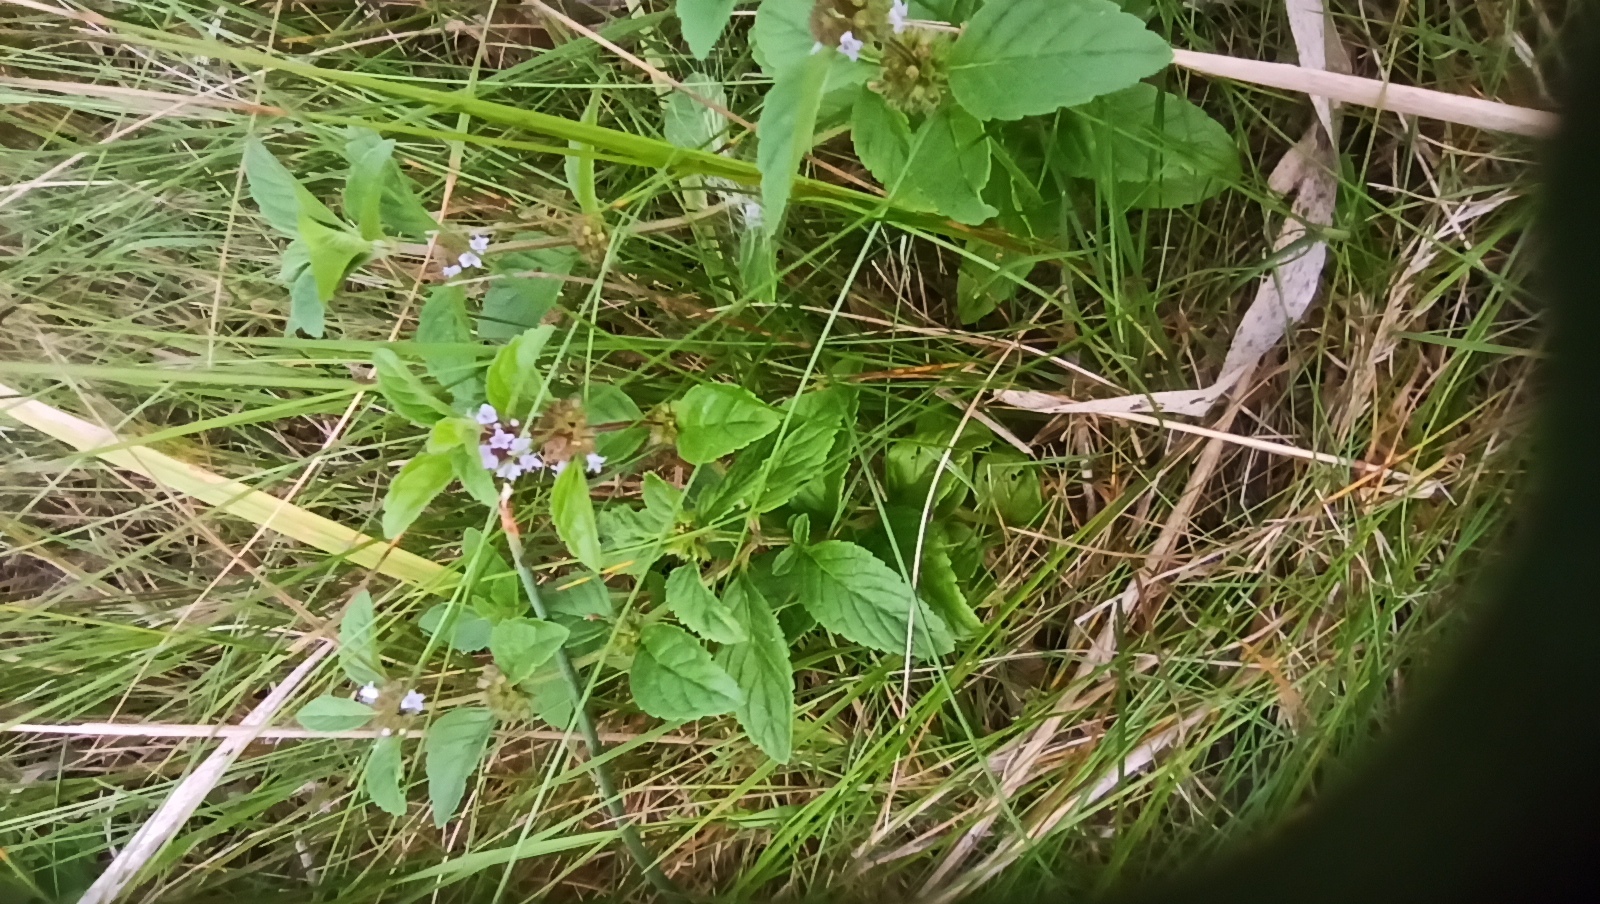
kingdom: Plantae
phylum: Tracheophyta
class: Magnoliopsida
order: Lamiales
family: Lamiaceae
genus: Mentha
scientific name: Mentha arvensis
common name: Corn mint
